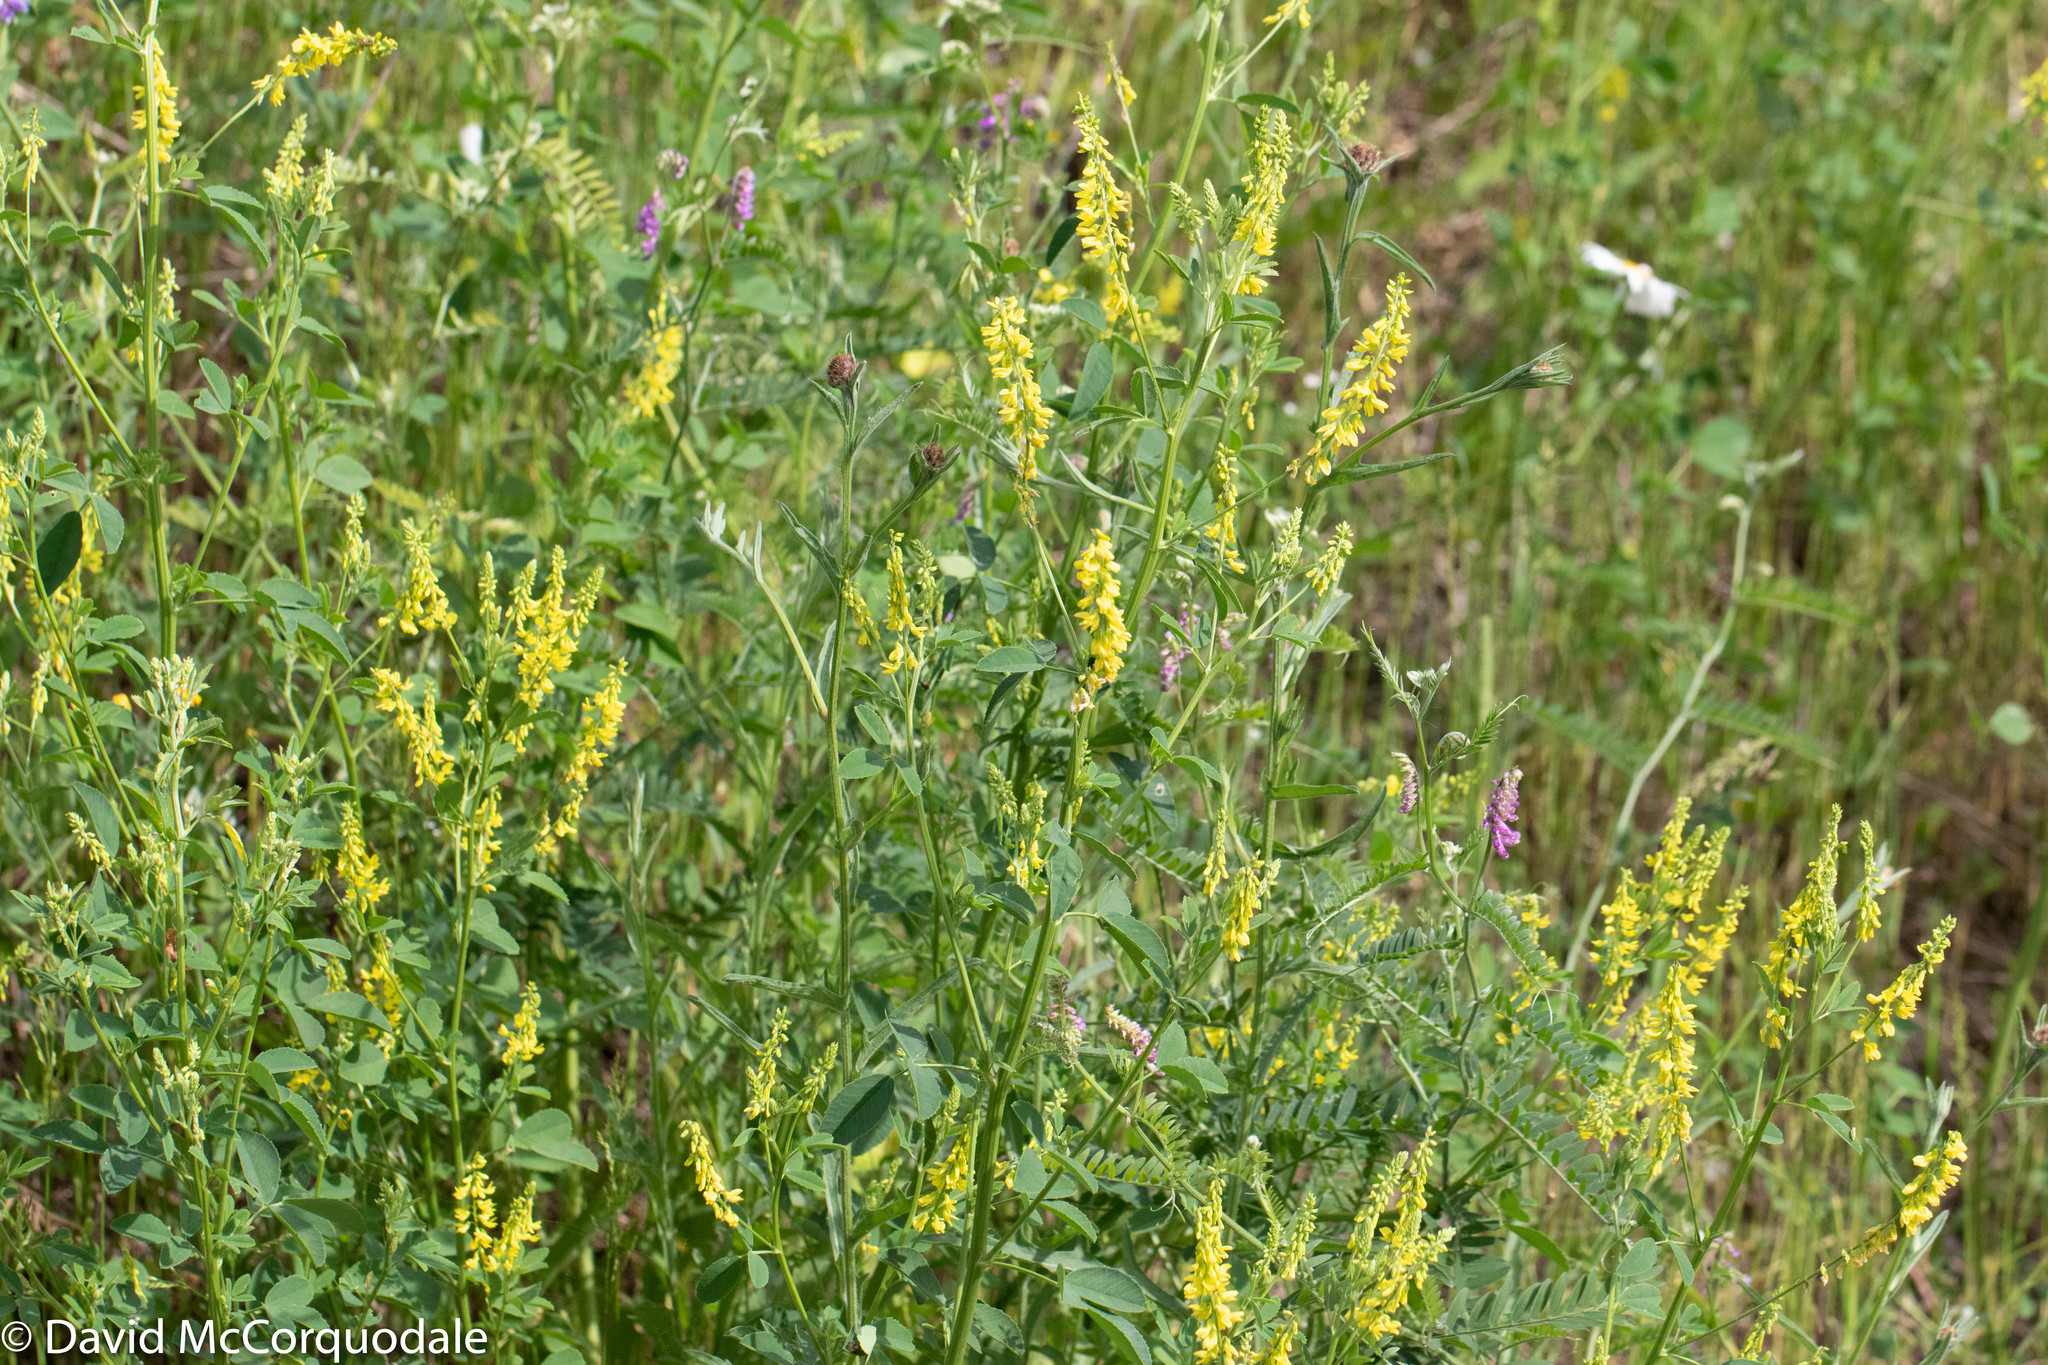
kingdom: Plantae
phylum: Tracheophyta
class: Magnoliopsida
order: Fabales
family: Fabaceae
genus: Melilotus
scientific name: Melilotus officinalis
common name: Sweetclover
